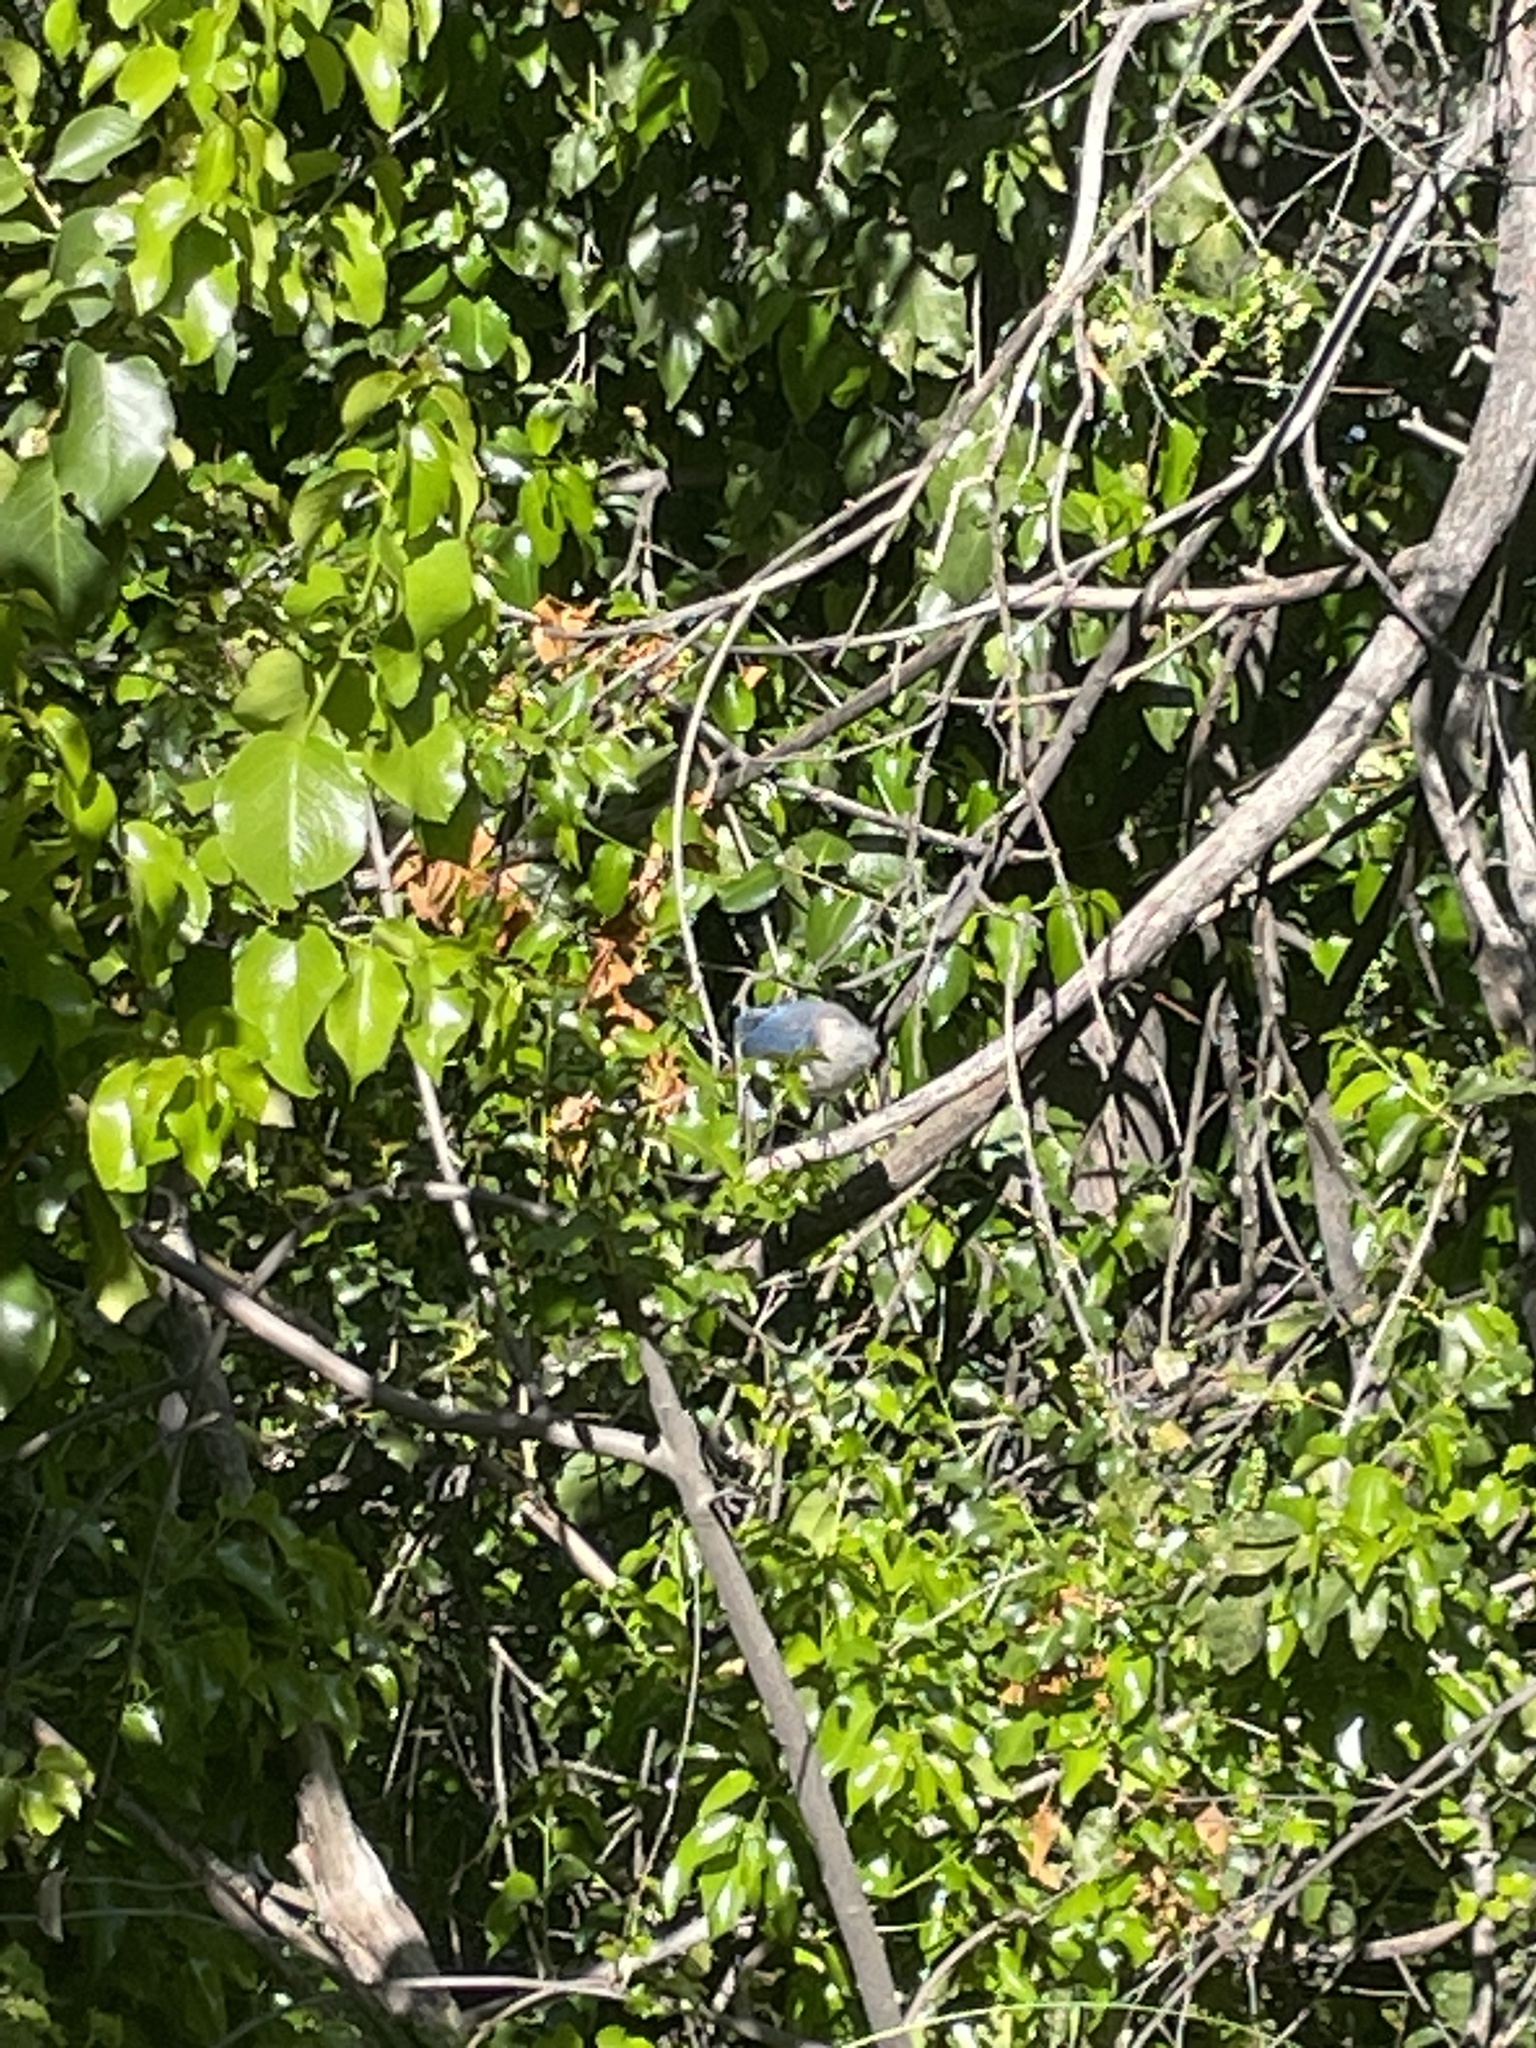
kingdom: Animalia
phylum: Chordata
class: Aves
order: Passeriformes
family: Corvidae
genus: Aphelocoma
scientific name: Aphelocoma californica
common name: California scrub-jay
